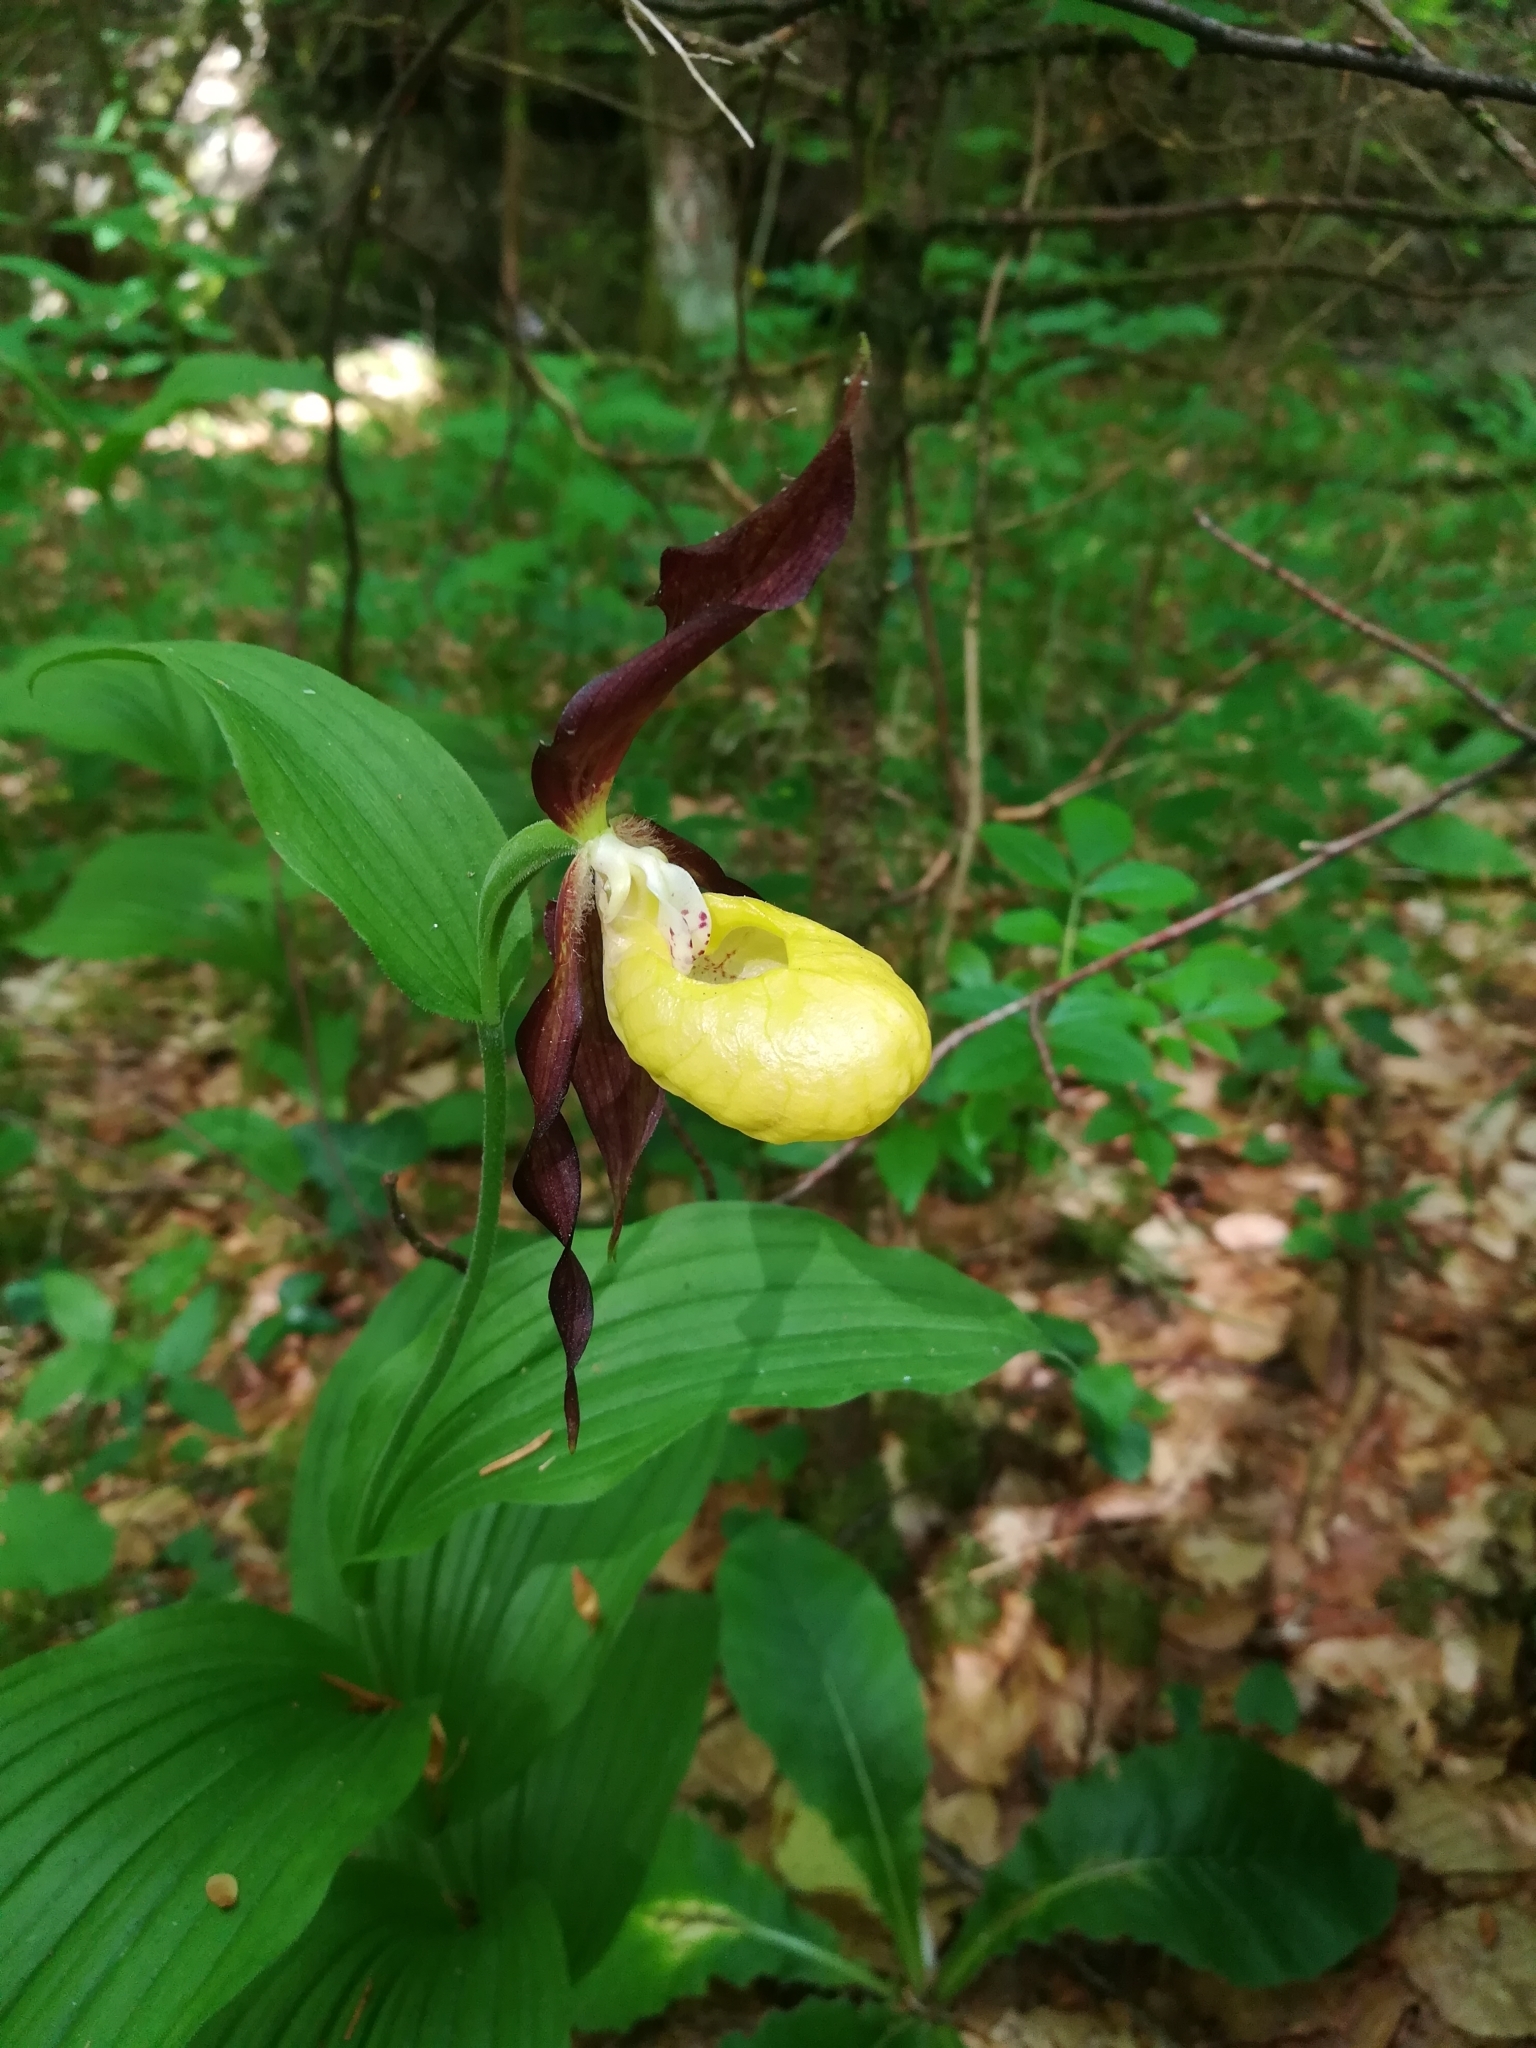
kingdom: Plantae
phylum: Tracheophyta
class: Liliopsida
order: Asparagales
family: Orchidaceae
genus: Cypripedium
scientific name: Cypripedium calceolus
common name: Lady's-slipper
